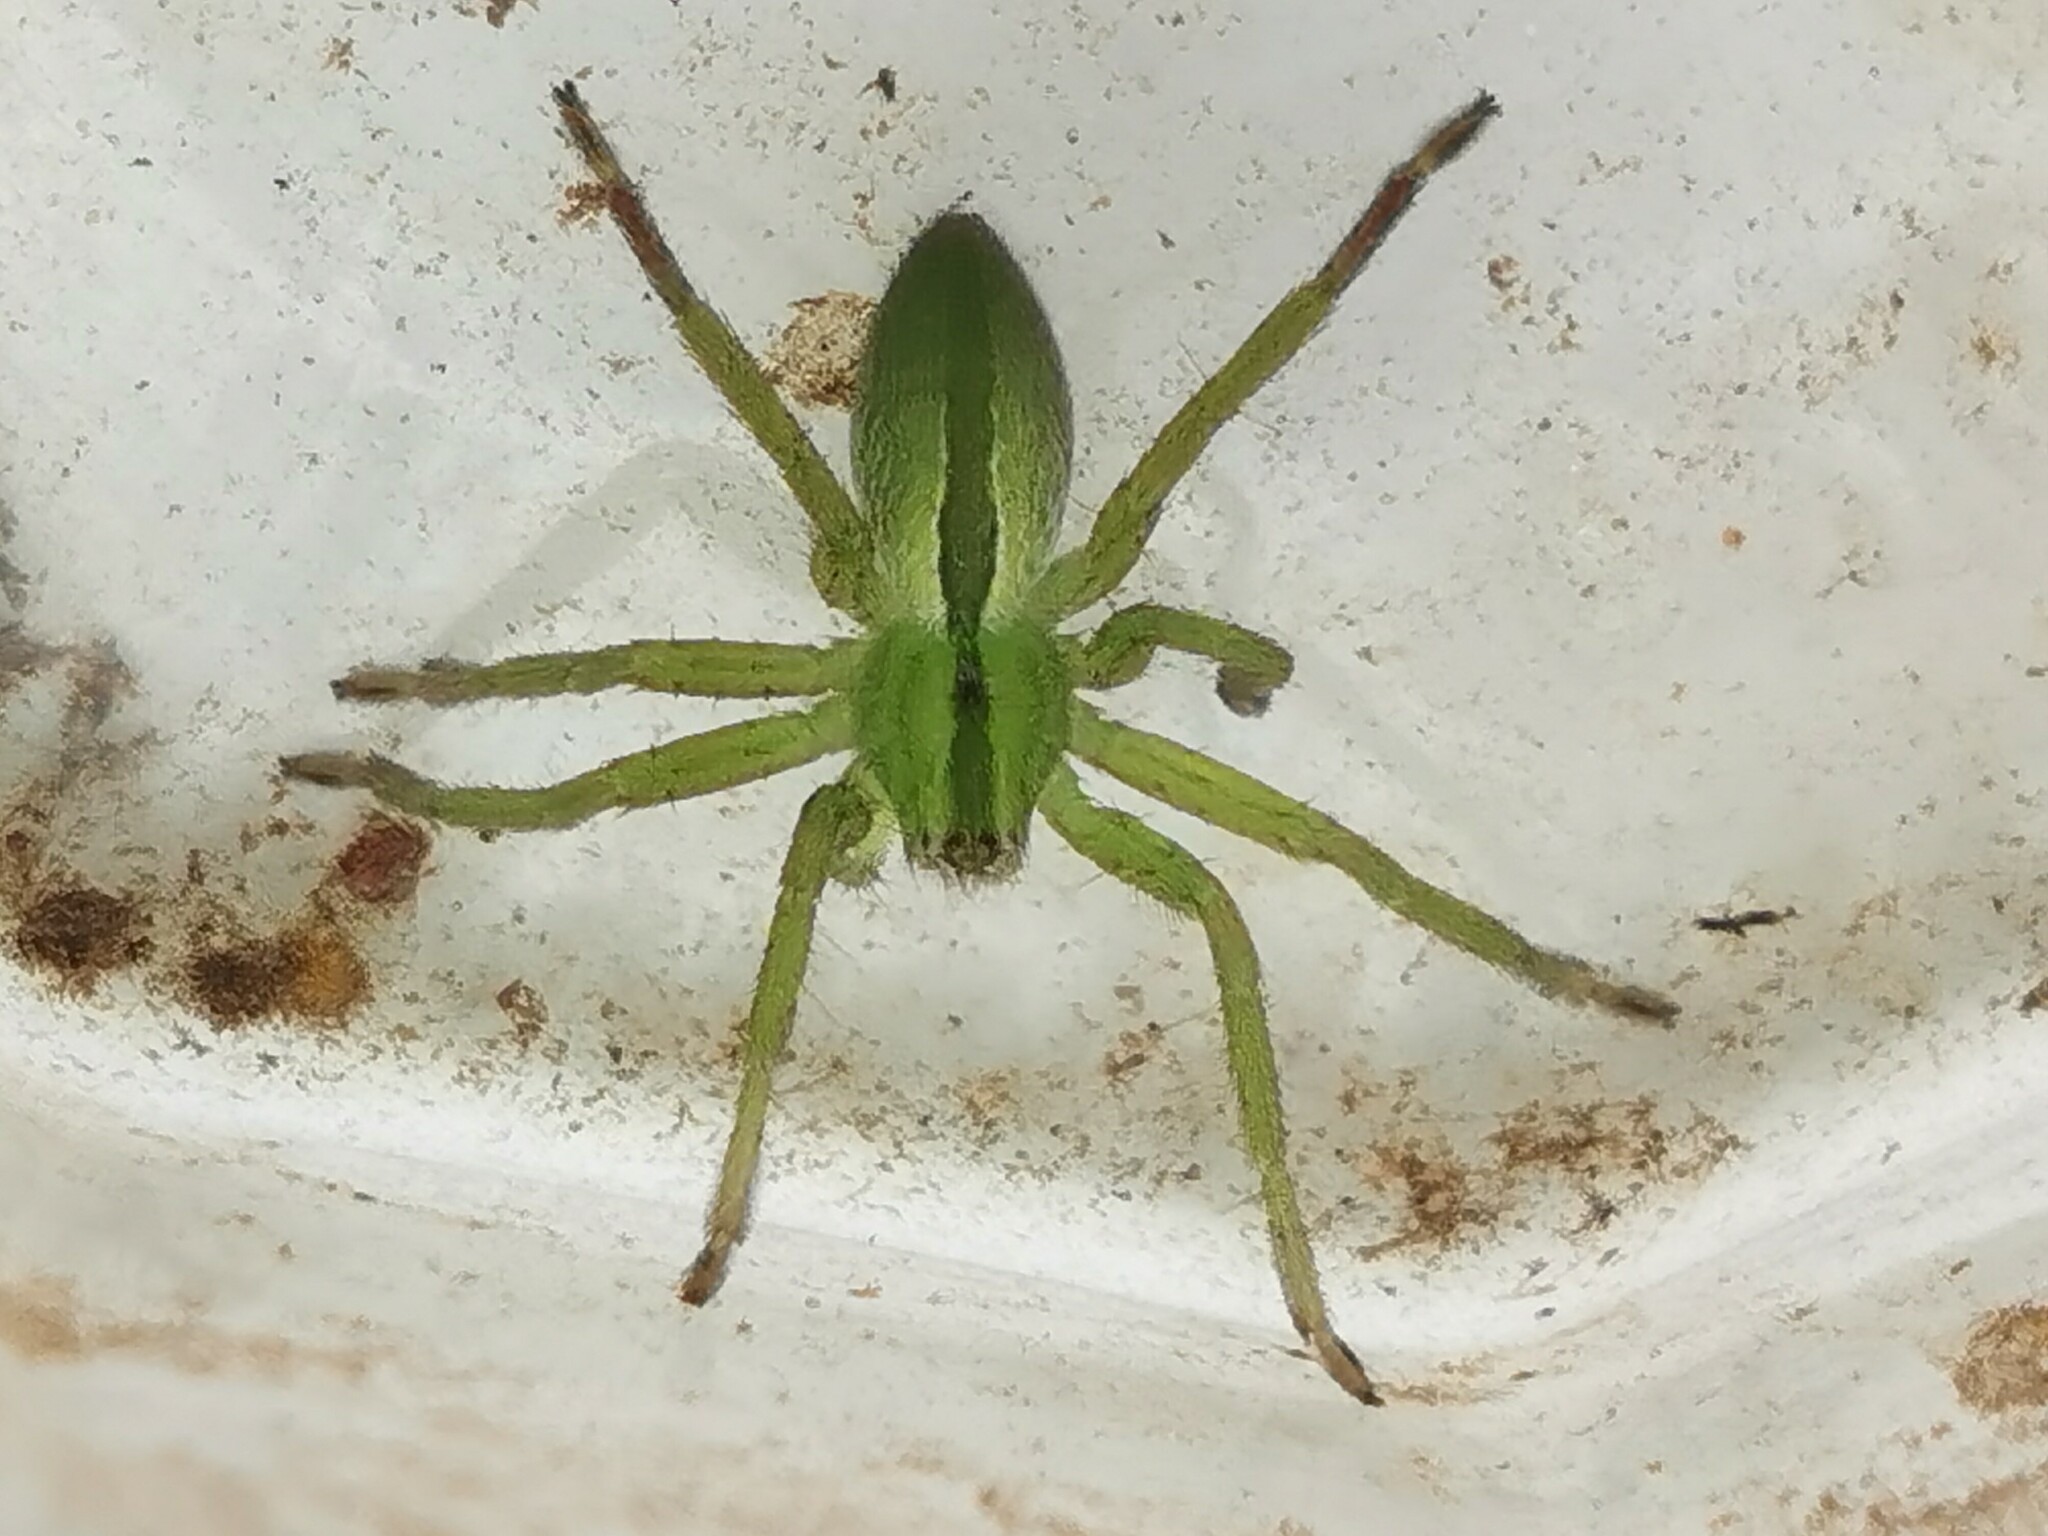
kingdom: Animalia
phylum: Arthropoda
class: Arachnida
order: Araneae
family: Sparassidae
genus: Micrommata
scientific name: Micrommata ligurina
